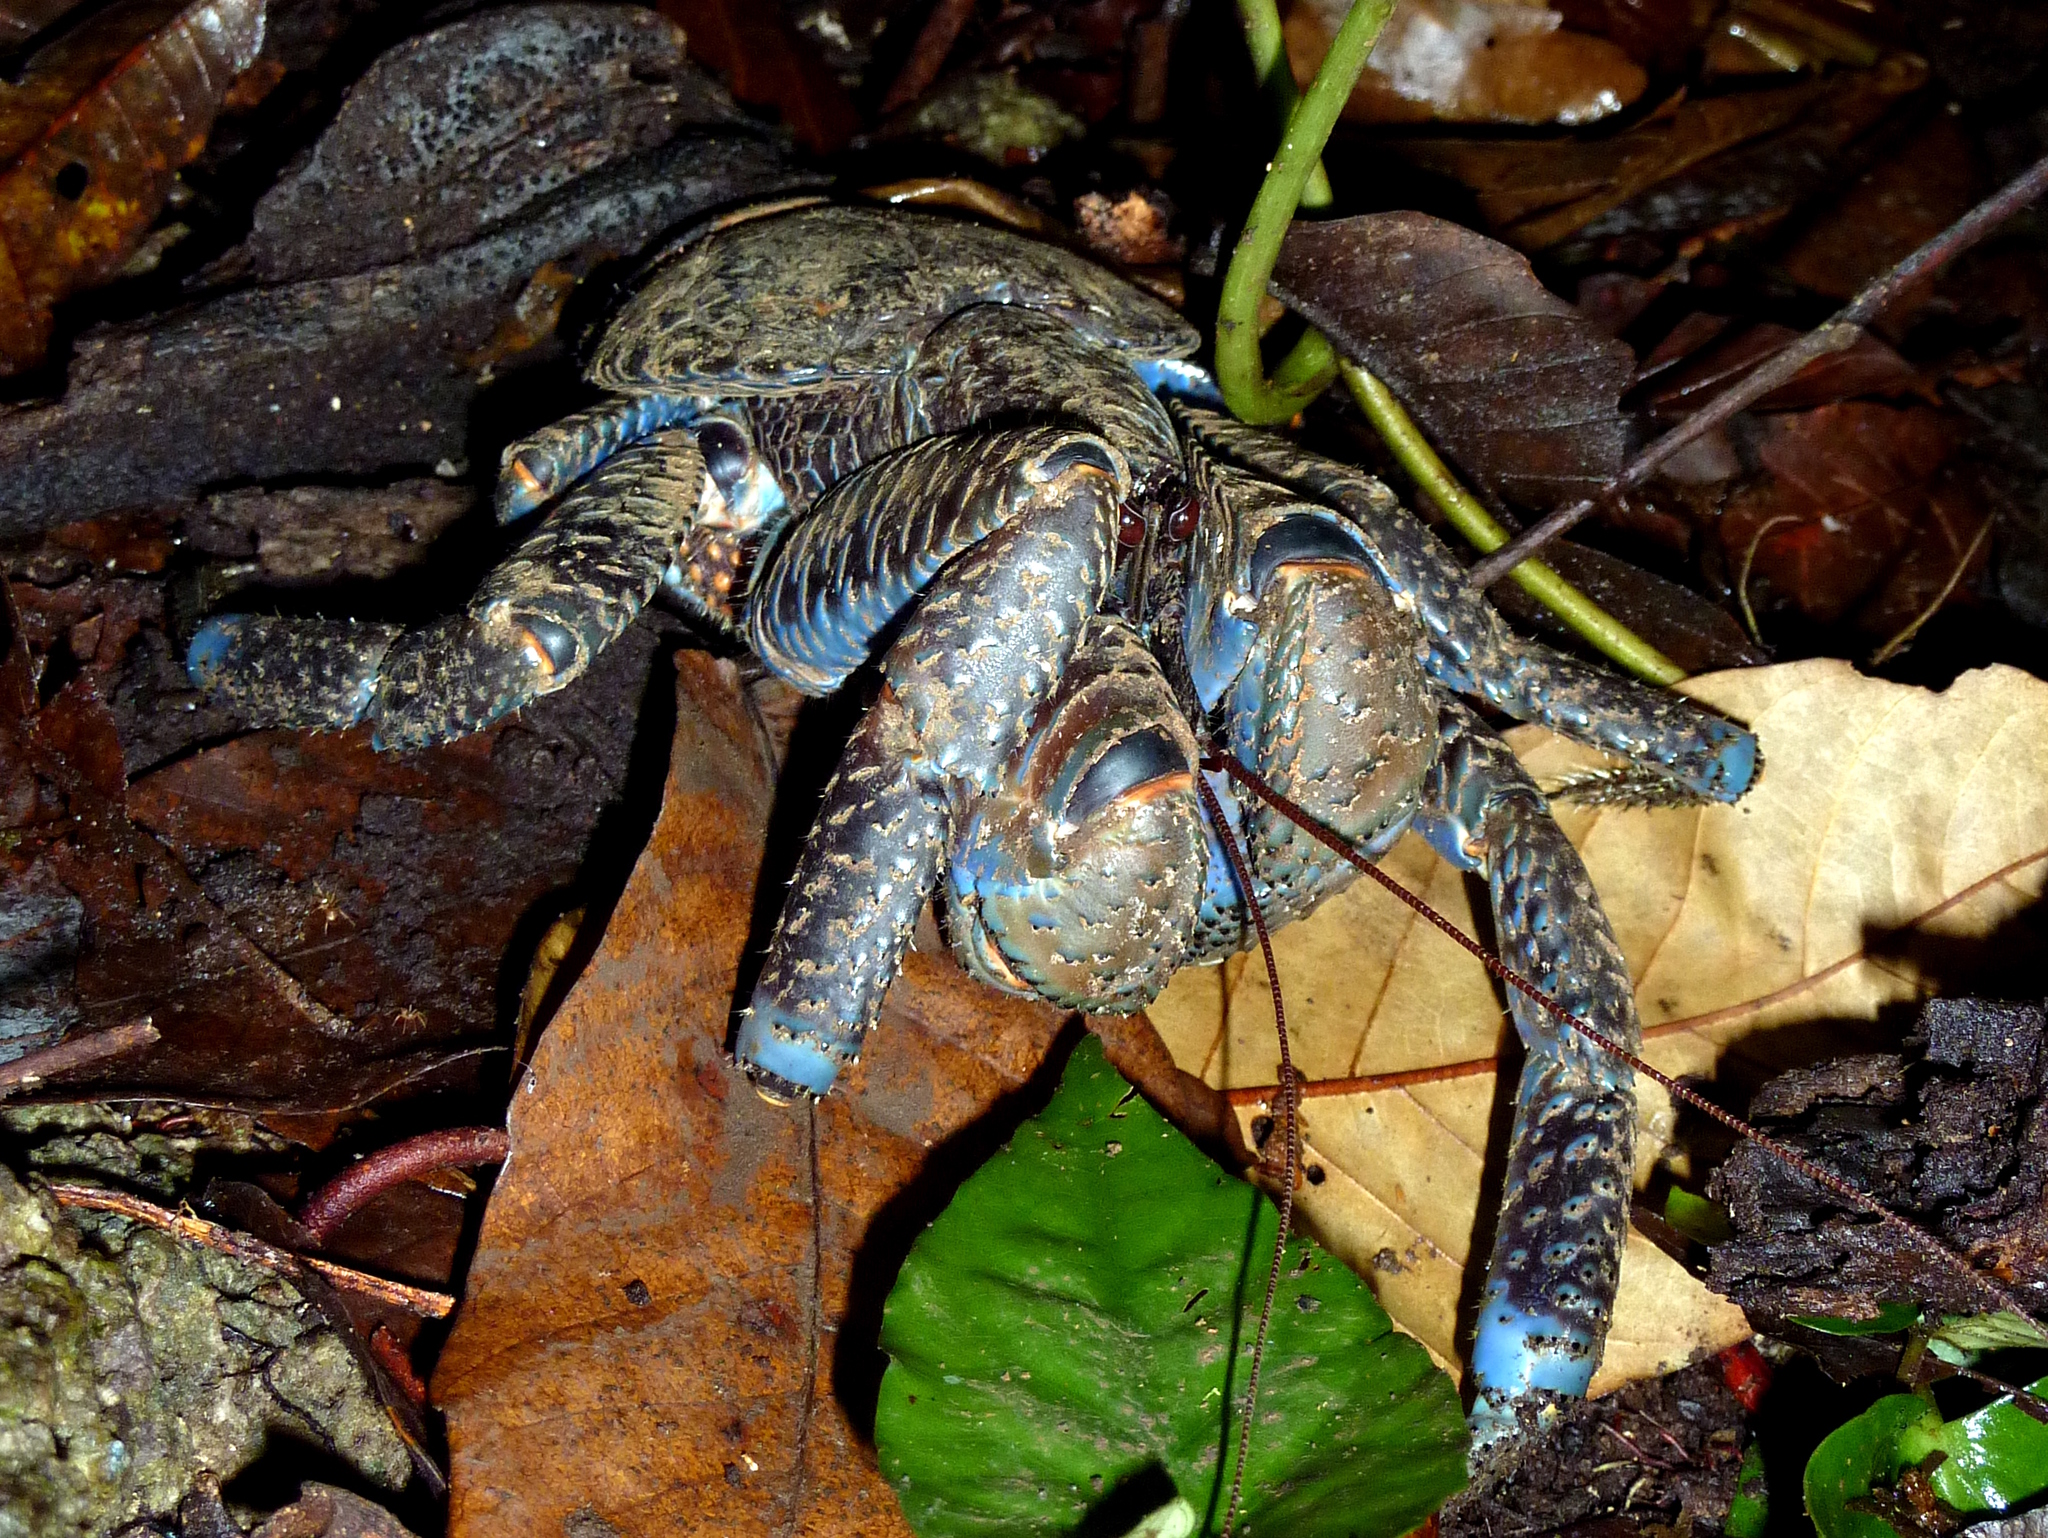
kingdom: Animalia
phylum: Arthropoda
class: Malacostraca
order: Decapoda
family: Coenobitidae
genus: Birgus
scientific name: Birgus latro
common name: Coconut crab
